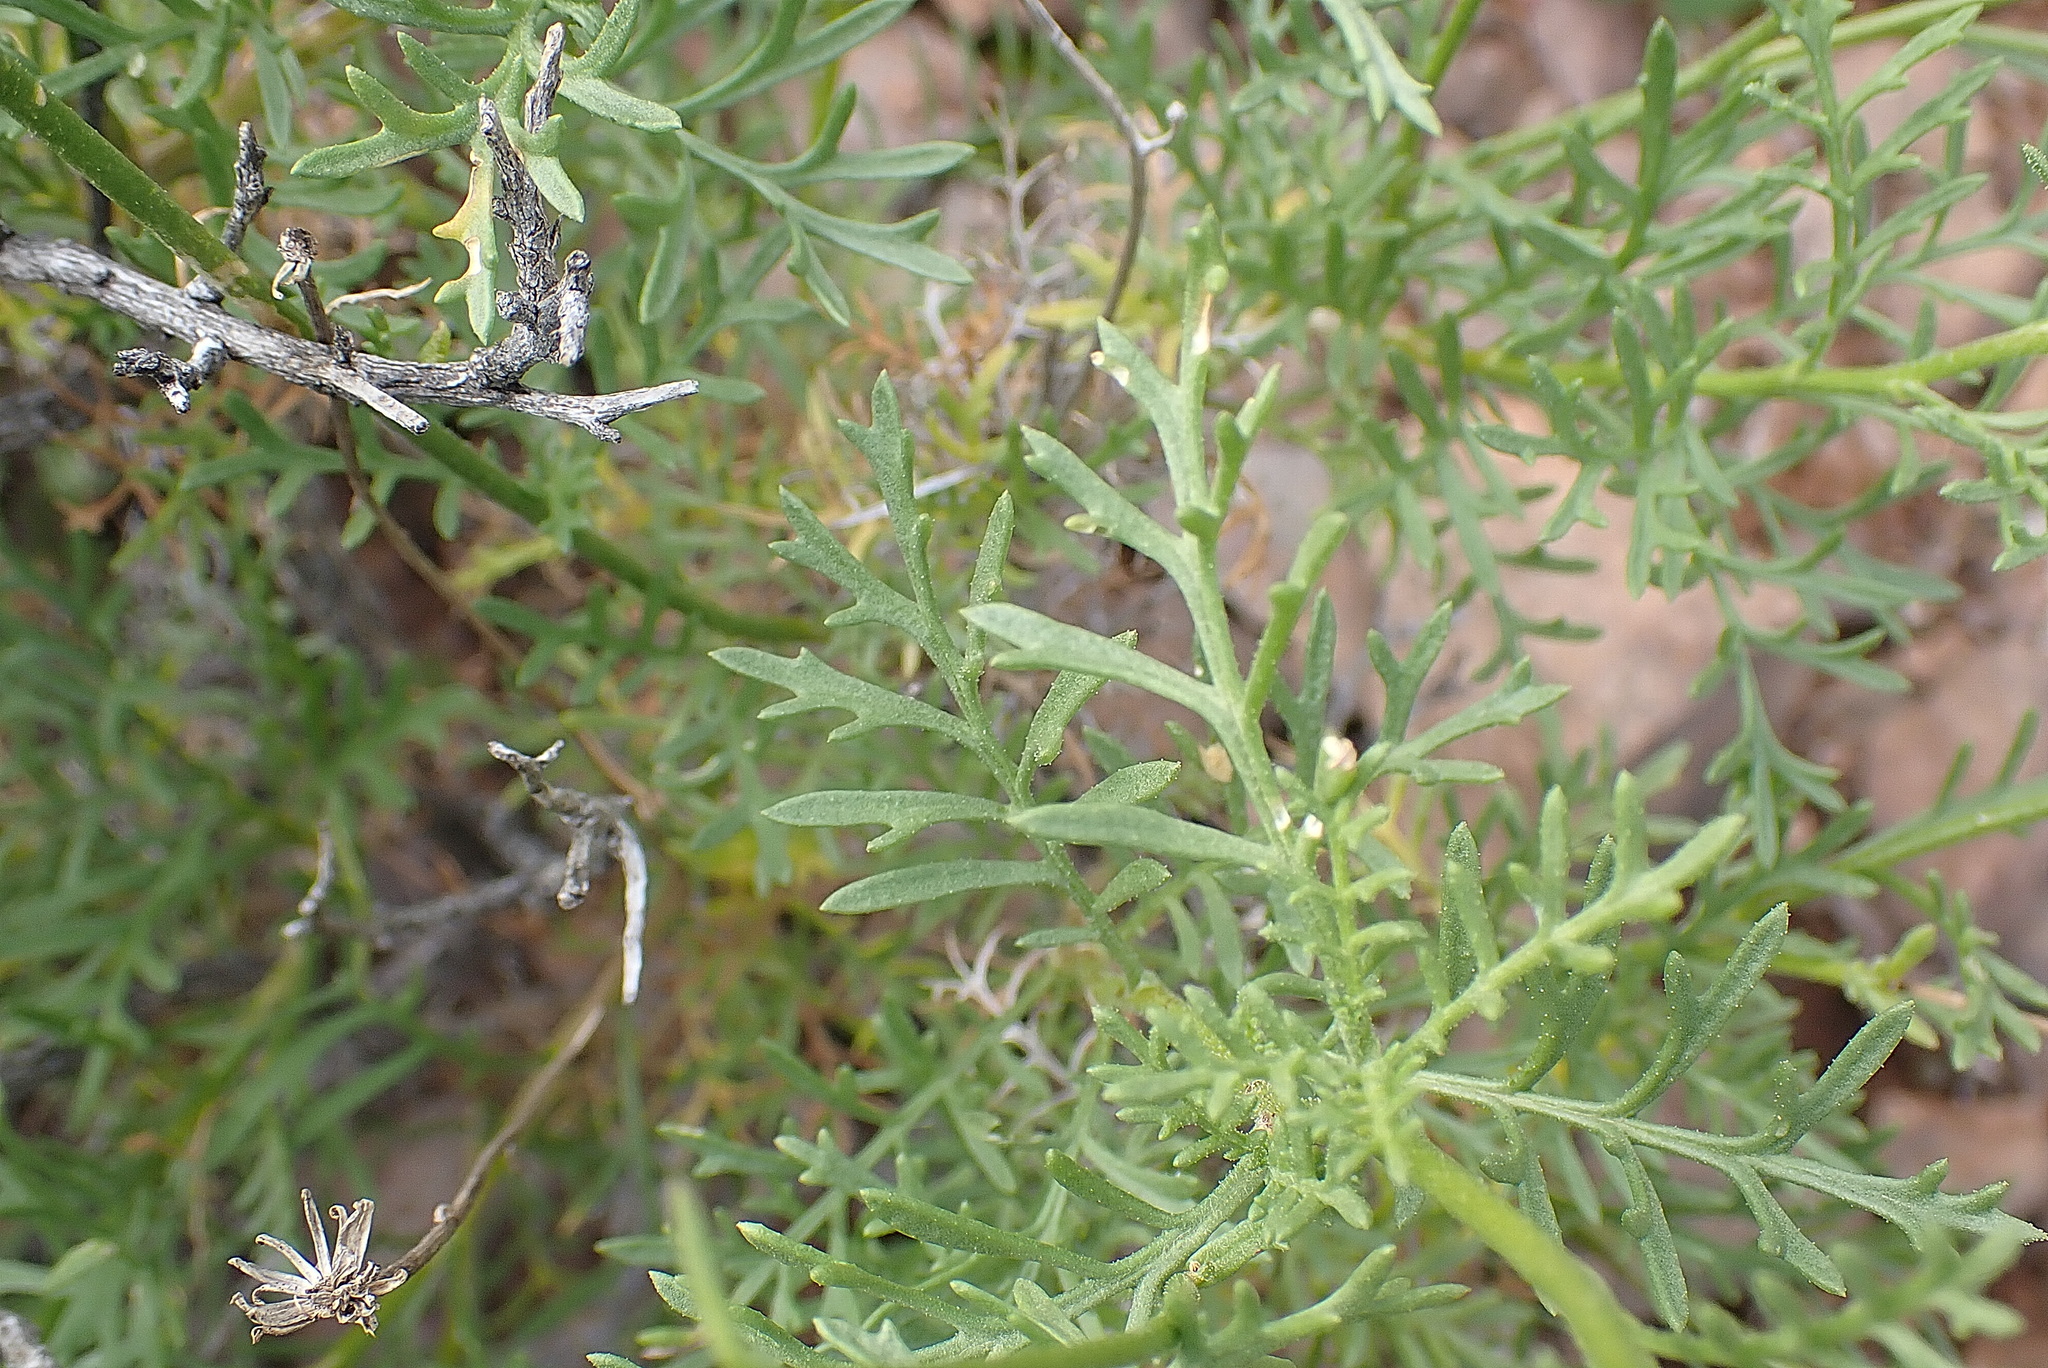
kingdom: Plantae
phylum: Tracheophyta
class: Magnoliopsida
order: Asterales
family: Asteraceae
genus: Garuleum
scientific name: Garuleum bipinnatum
